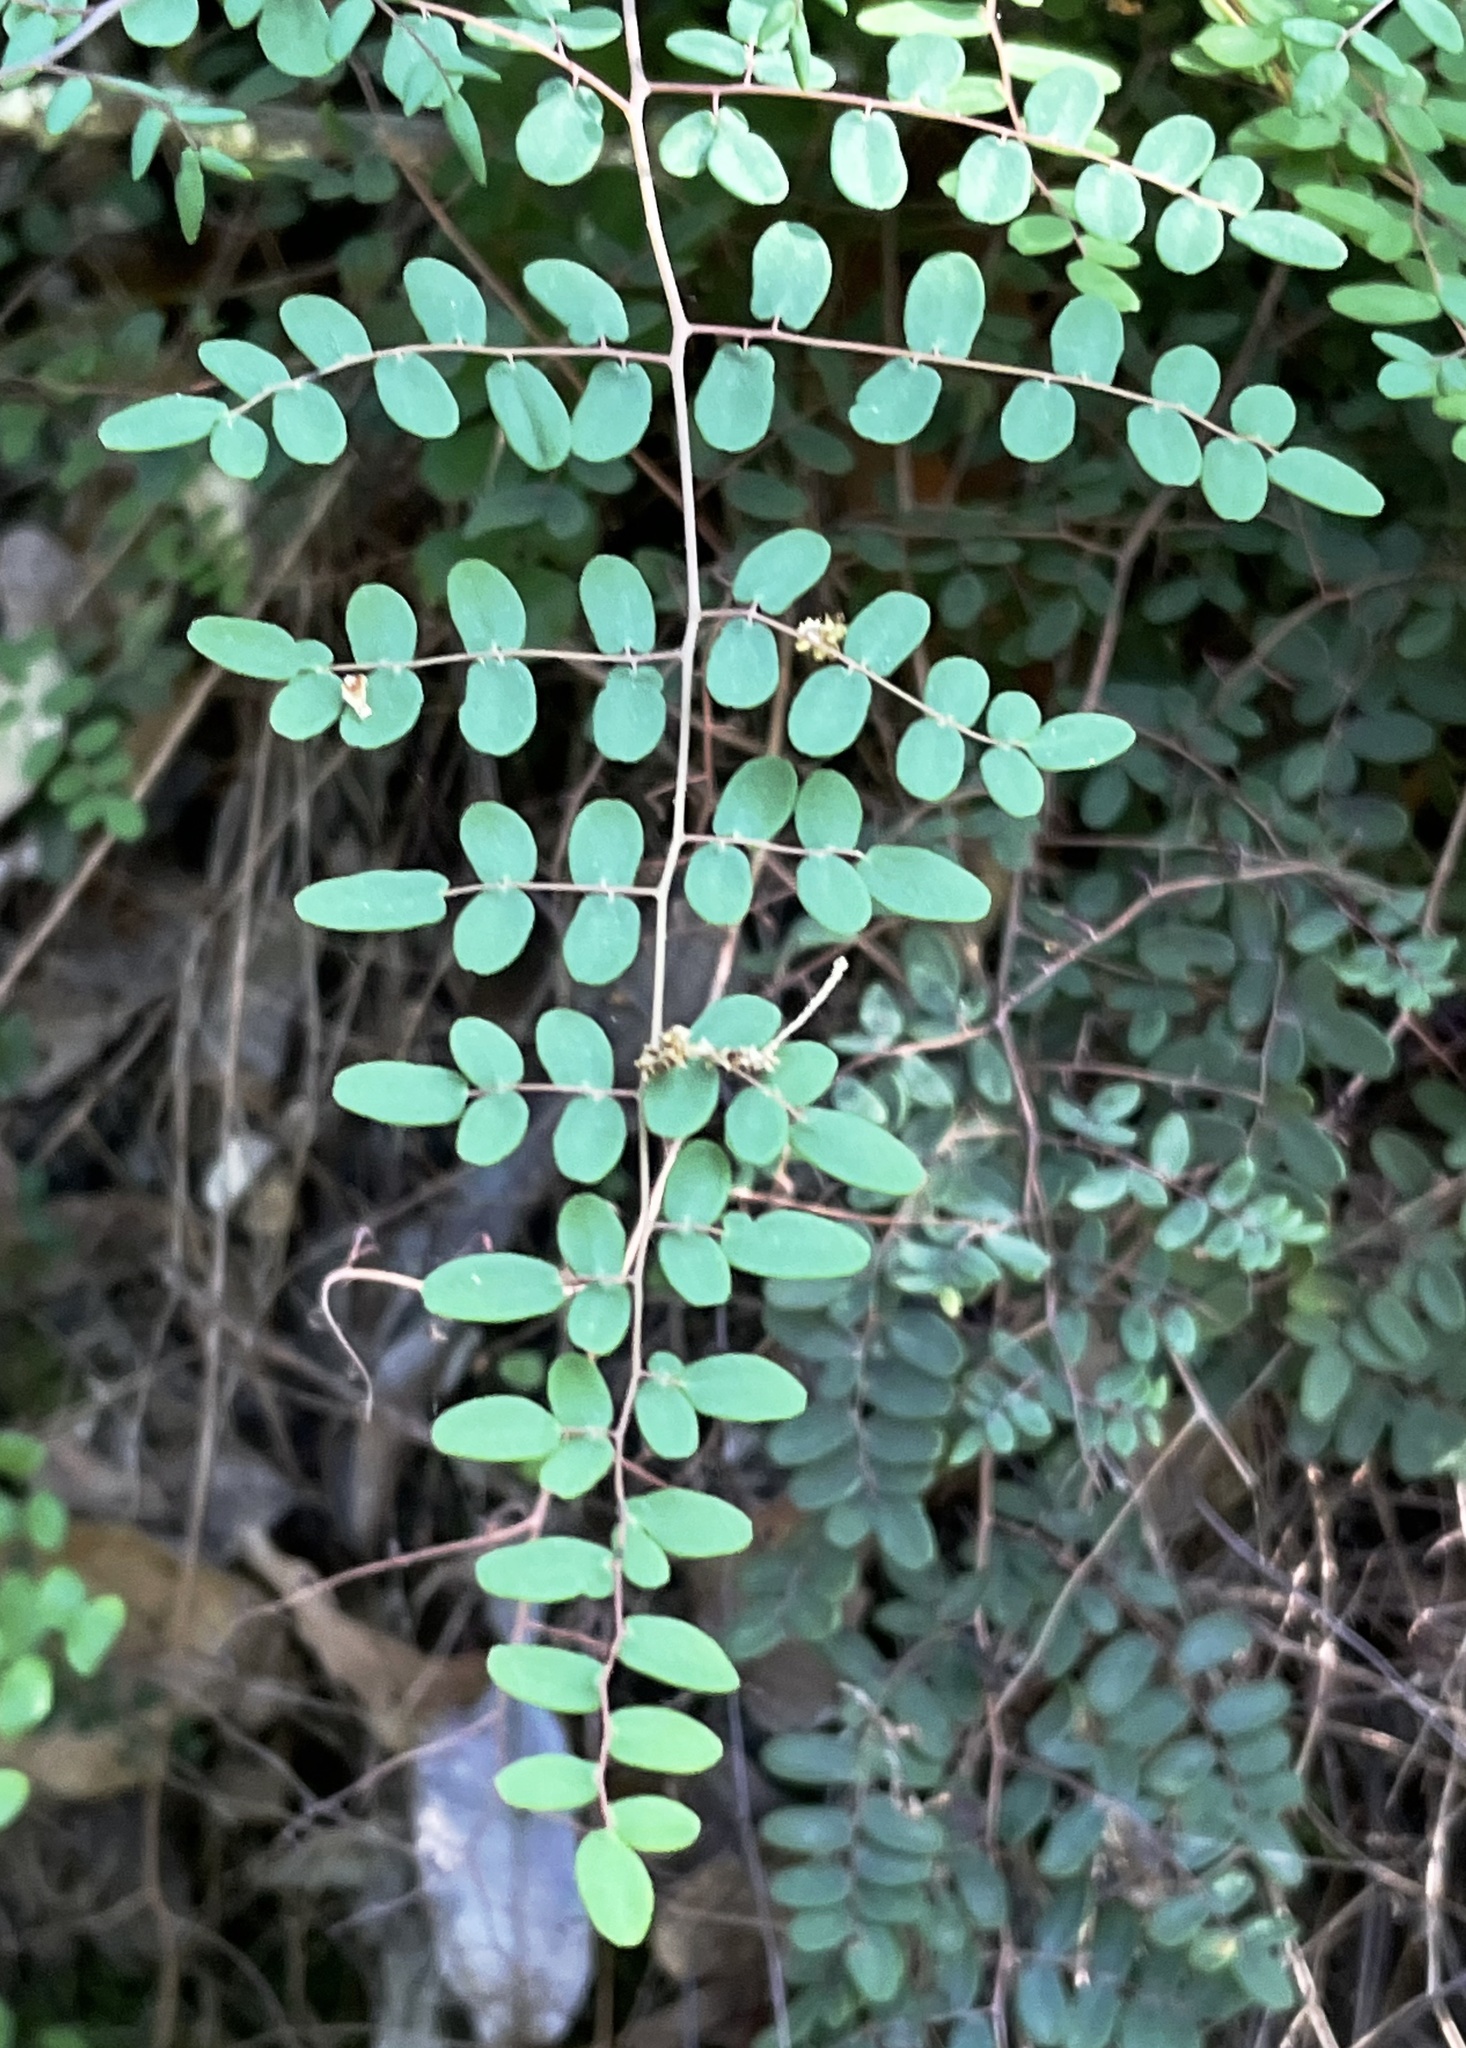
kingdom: Plantae
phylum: Tracheophyta
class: Polypodiopsida
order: Polypodiales
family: Pteridaceae
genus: Pellaea
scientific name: Pellaea andromedifolia
